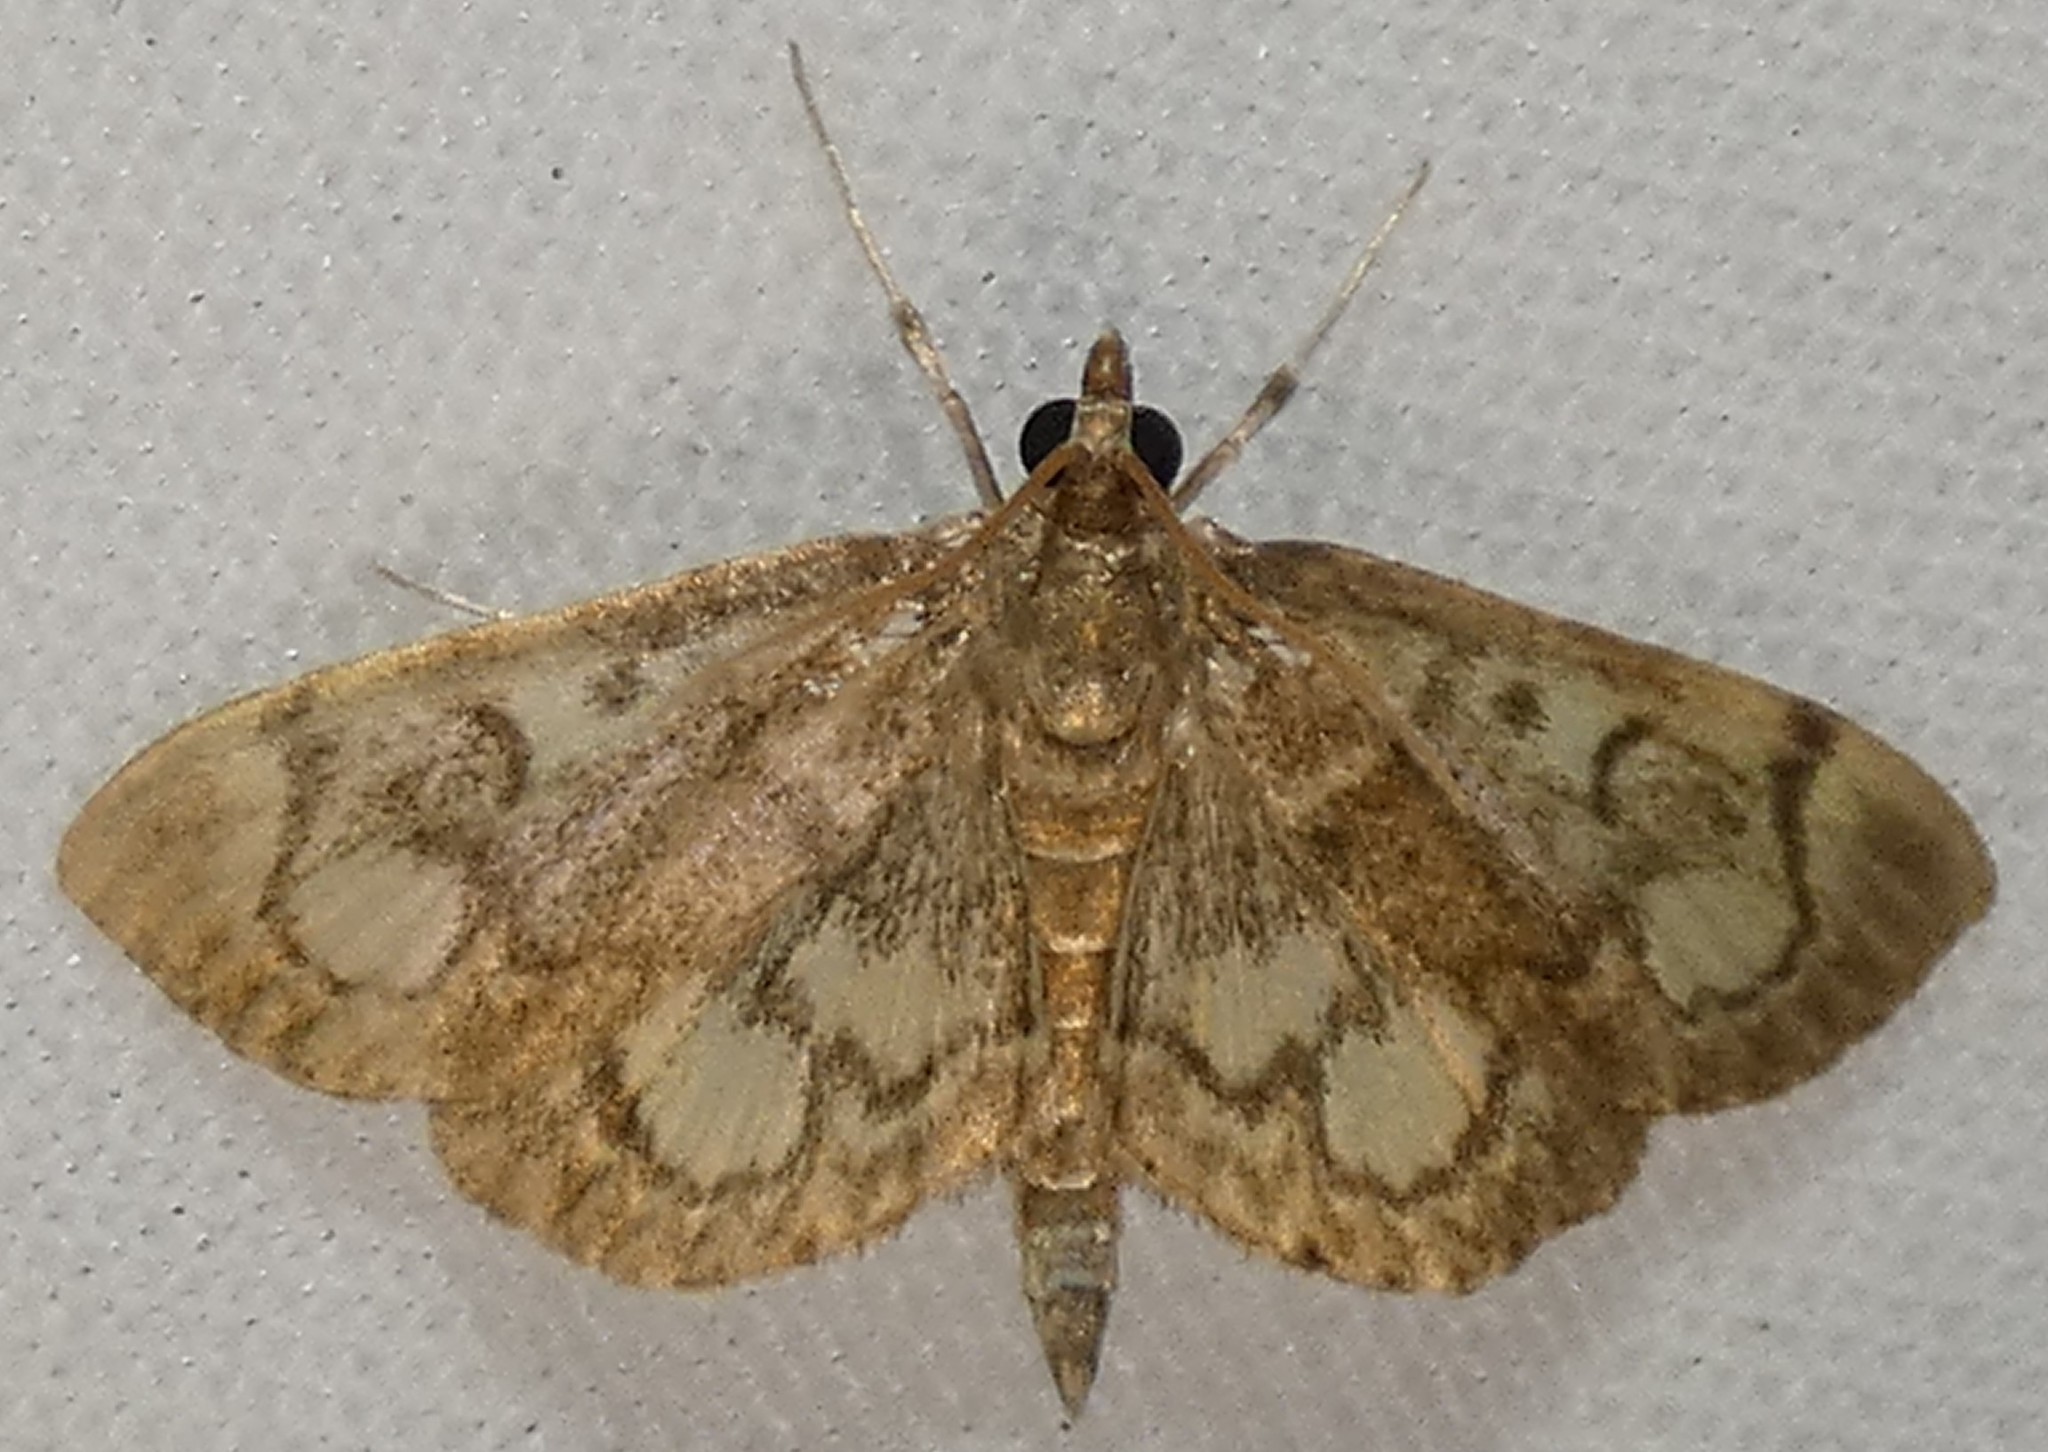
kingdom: Animalia
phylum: Arthropoda
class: Insecta
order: Lepidoptera
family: Crambidae
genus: Anania
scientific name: Anania
